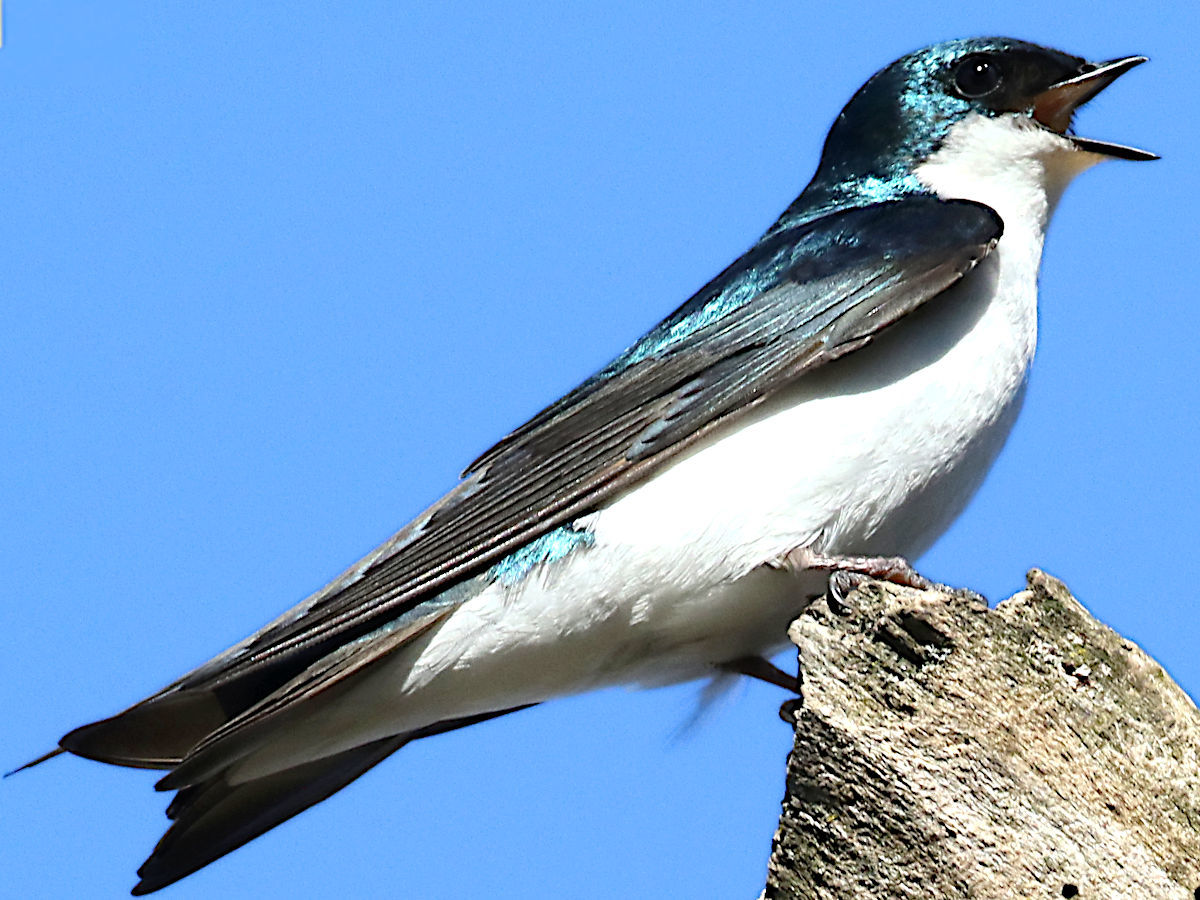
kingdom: Animalia
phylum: Chordata
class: Aves
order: Passeriformes
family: Hirundinidae
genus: Tachycineta
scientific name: Tachycineta bicolor
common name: Tree swallow
